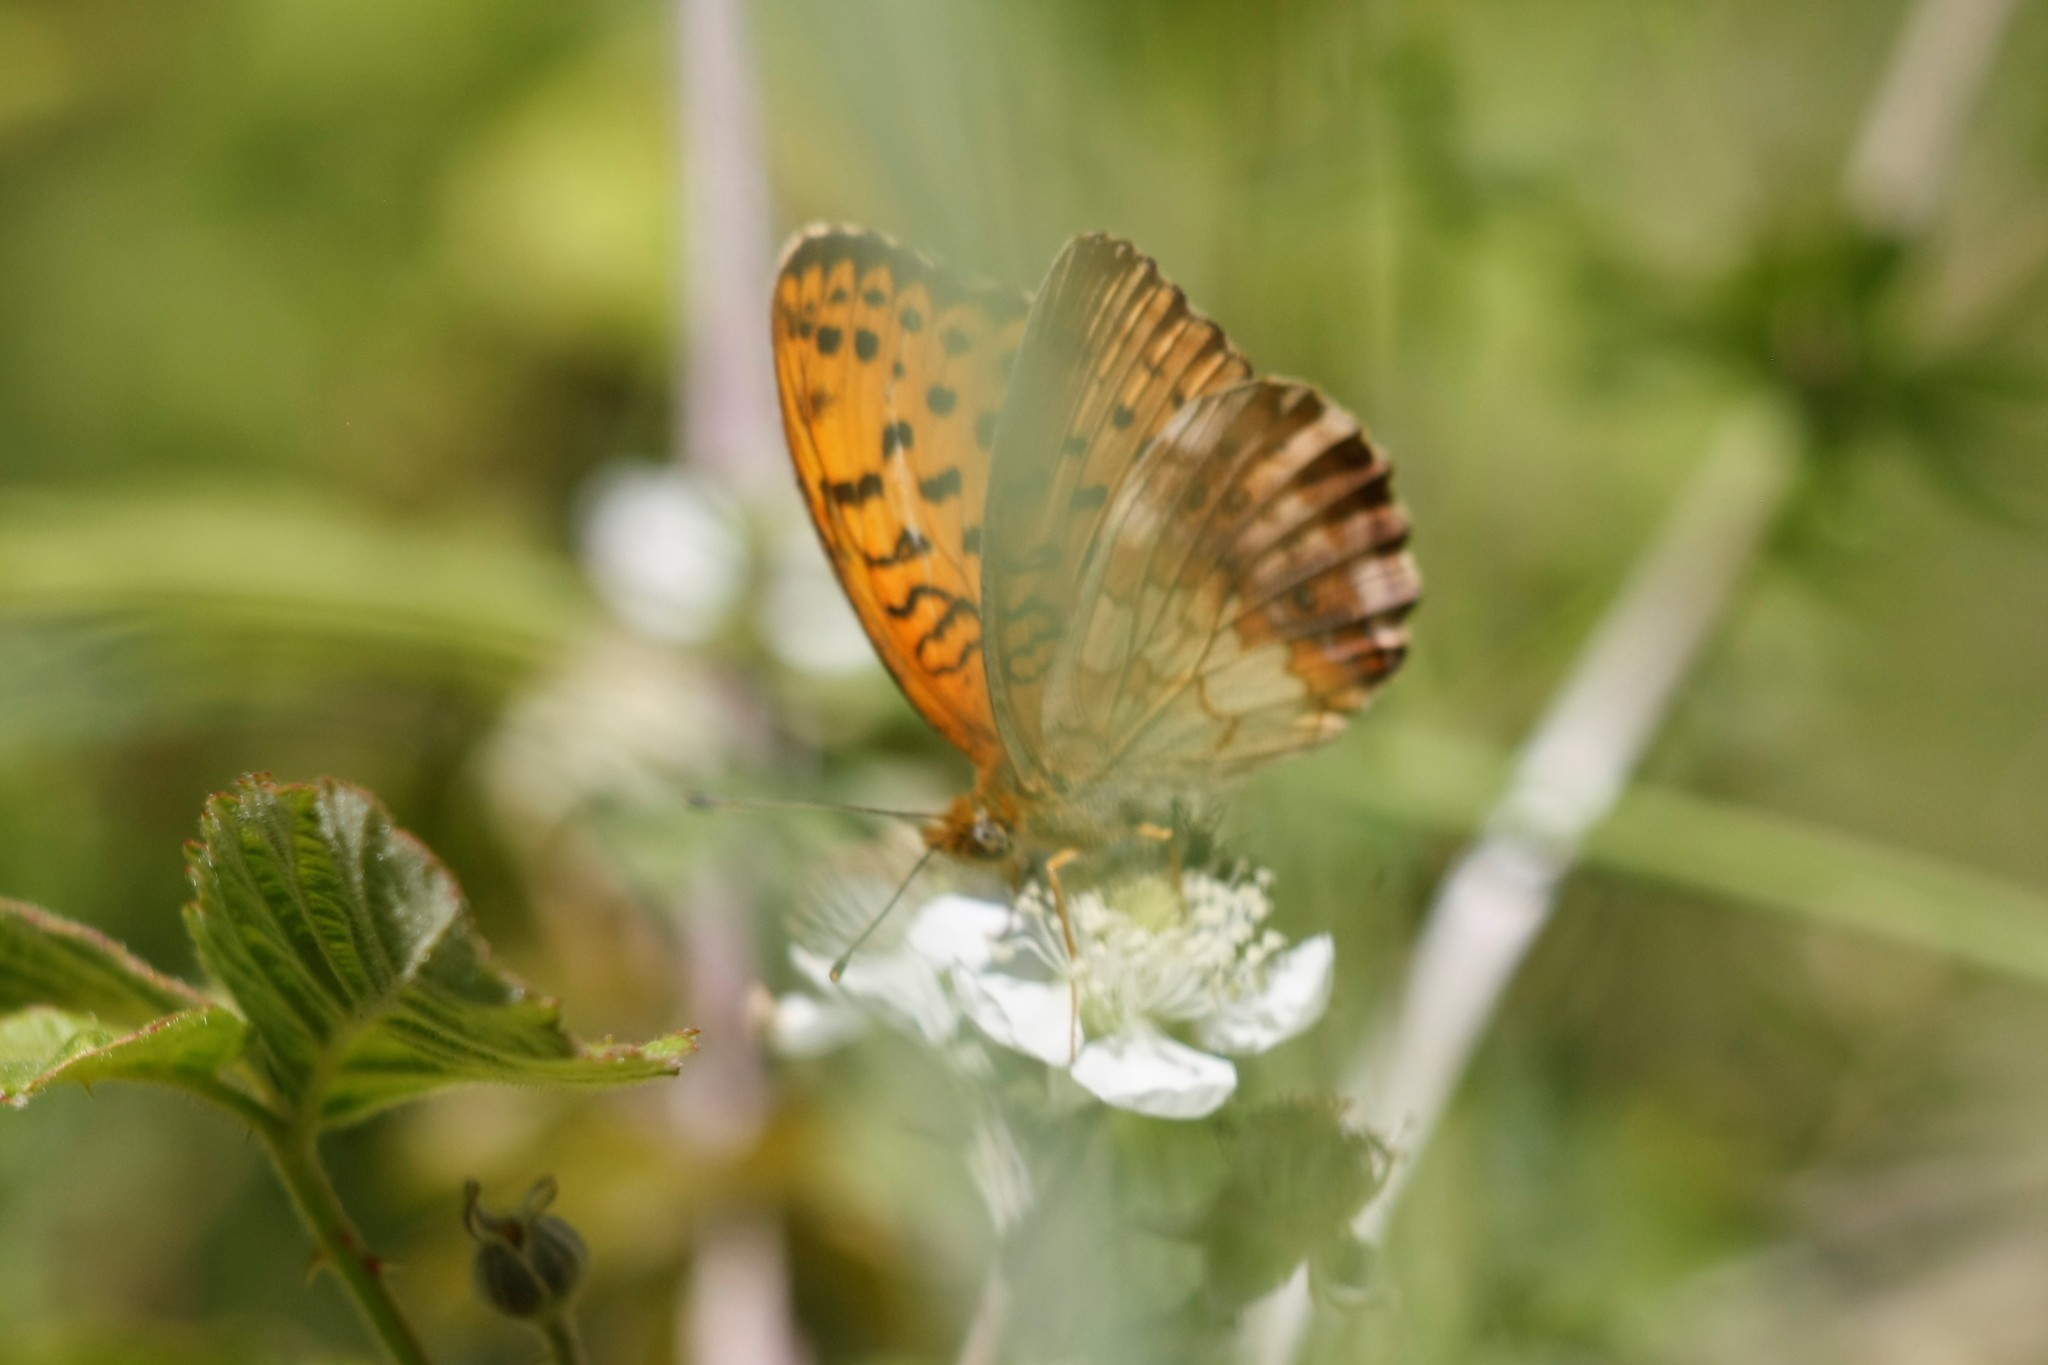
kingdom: Animalia
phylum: Arthropoda
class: Insecta
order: Lepidoptera
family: Nymphalidae
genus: Brenthis
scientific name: Brenthis daphne
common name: Marbled fritillary
